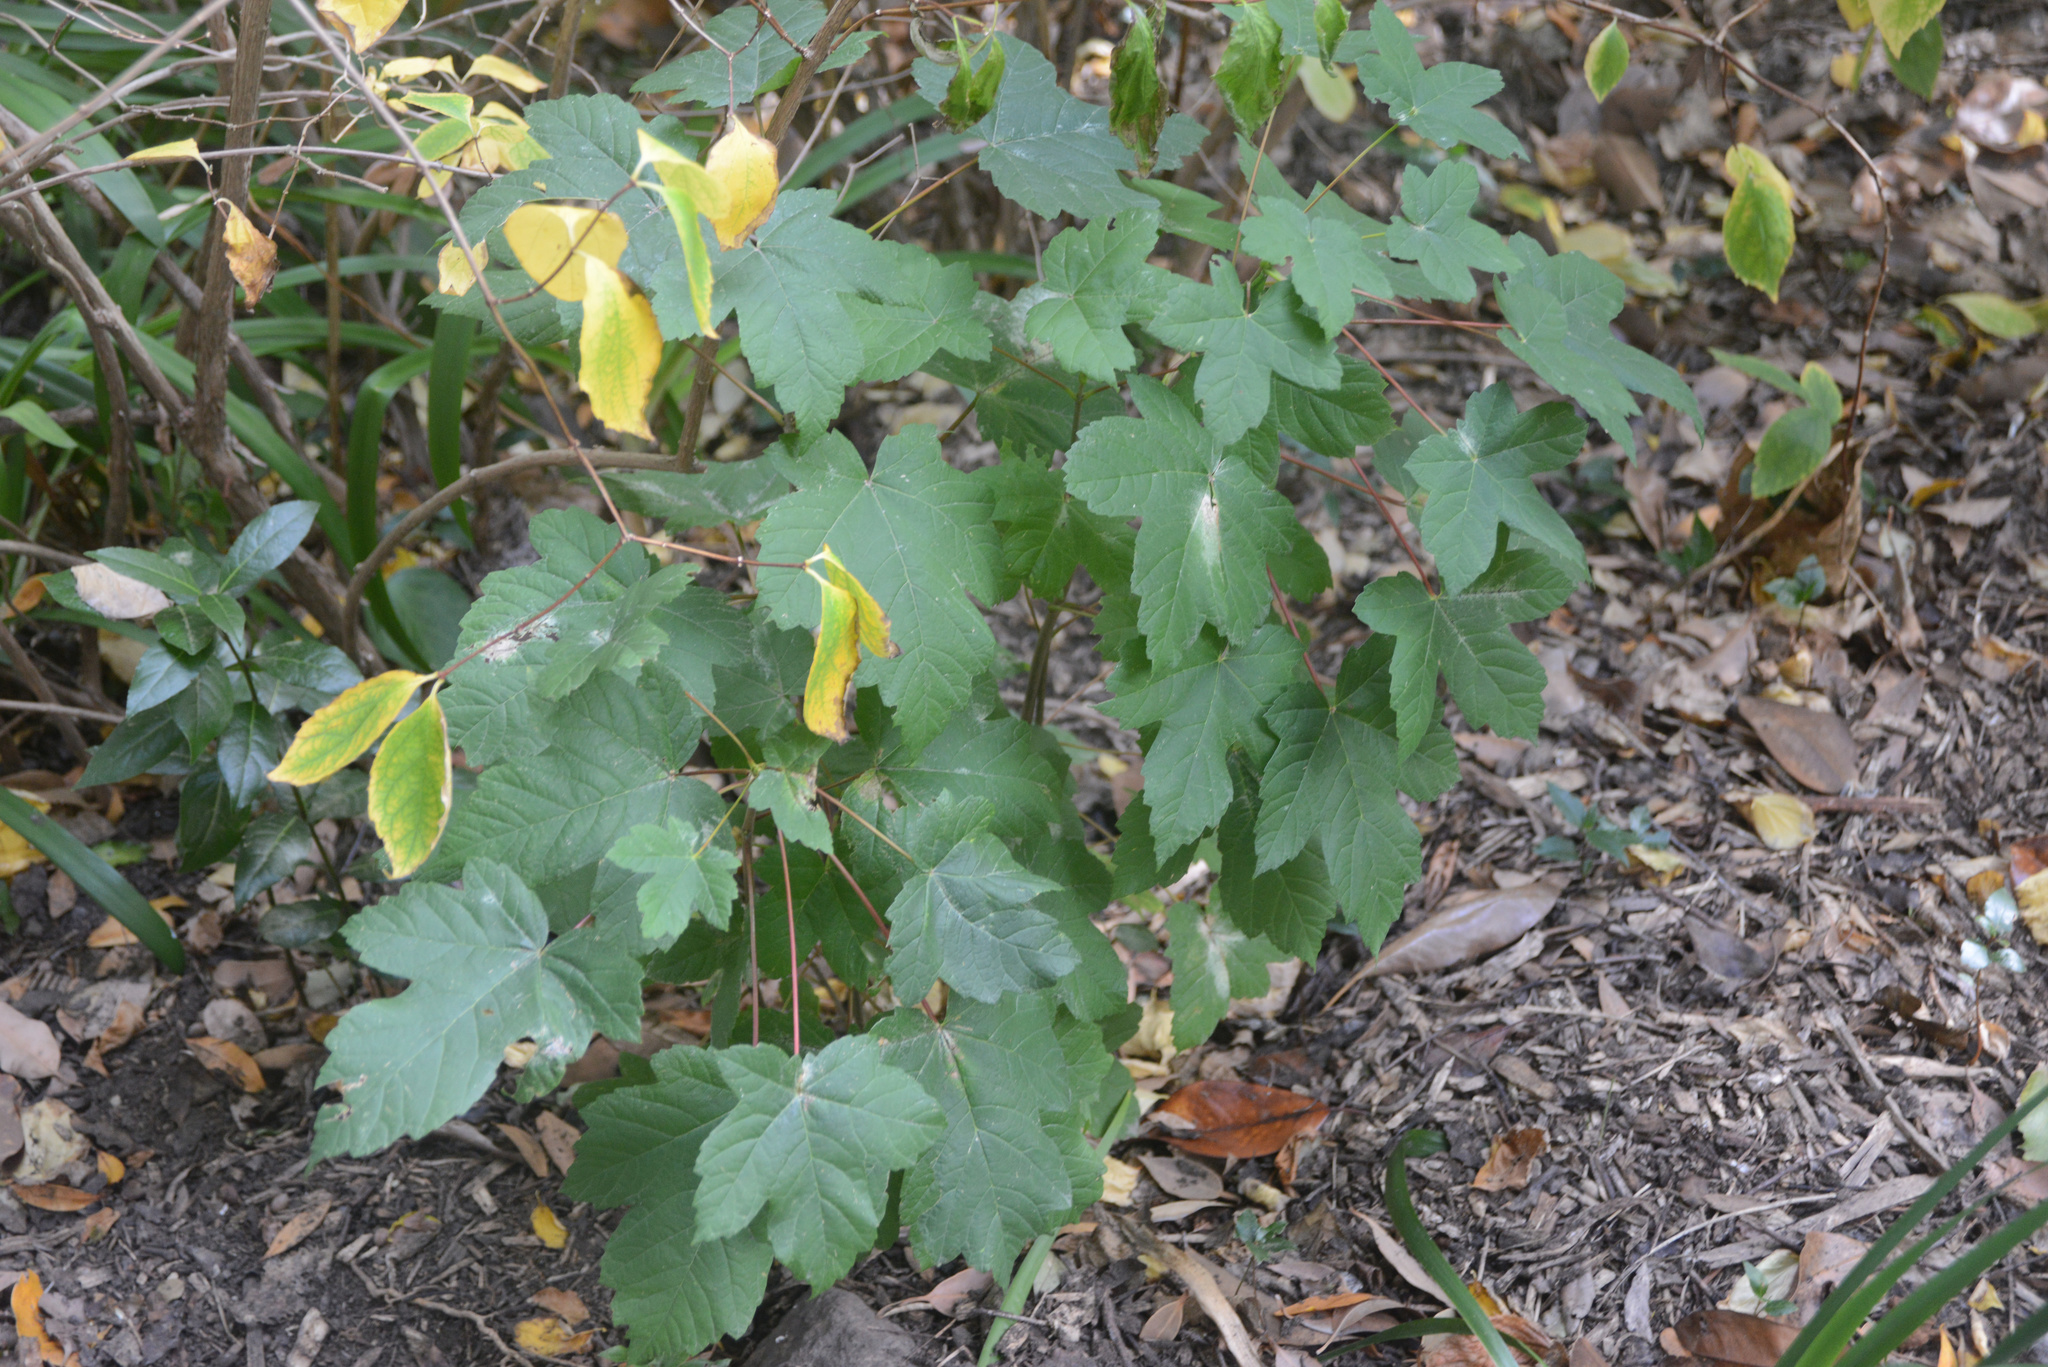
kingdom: Plantae
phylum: Tracheophyta
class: Magnoliopsida
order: Sapindales
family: Sapindaceae
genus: Acer
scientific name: Acer pseudoplatanus
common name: Sycamore
